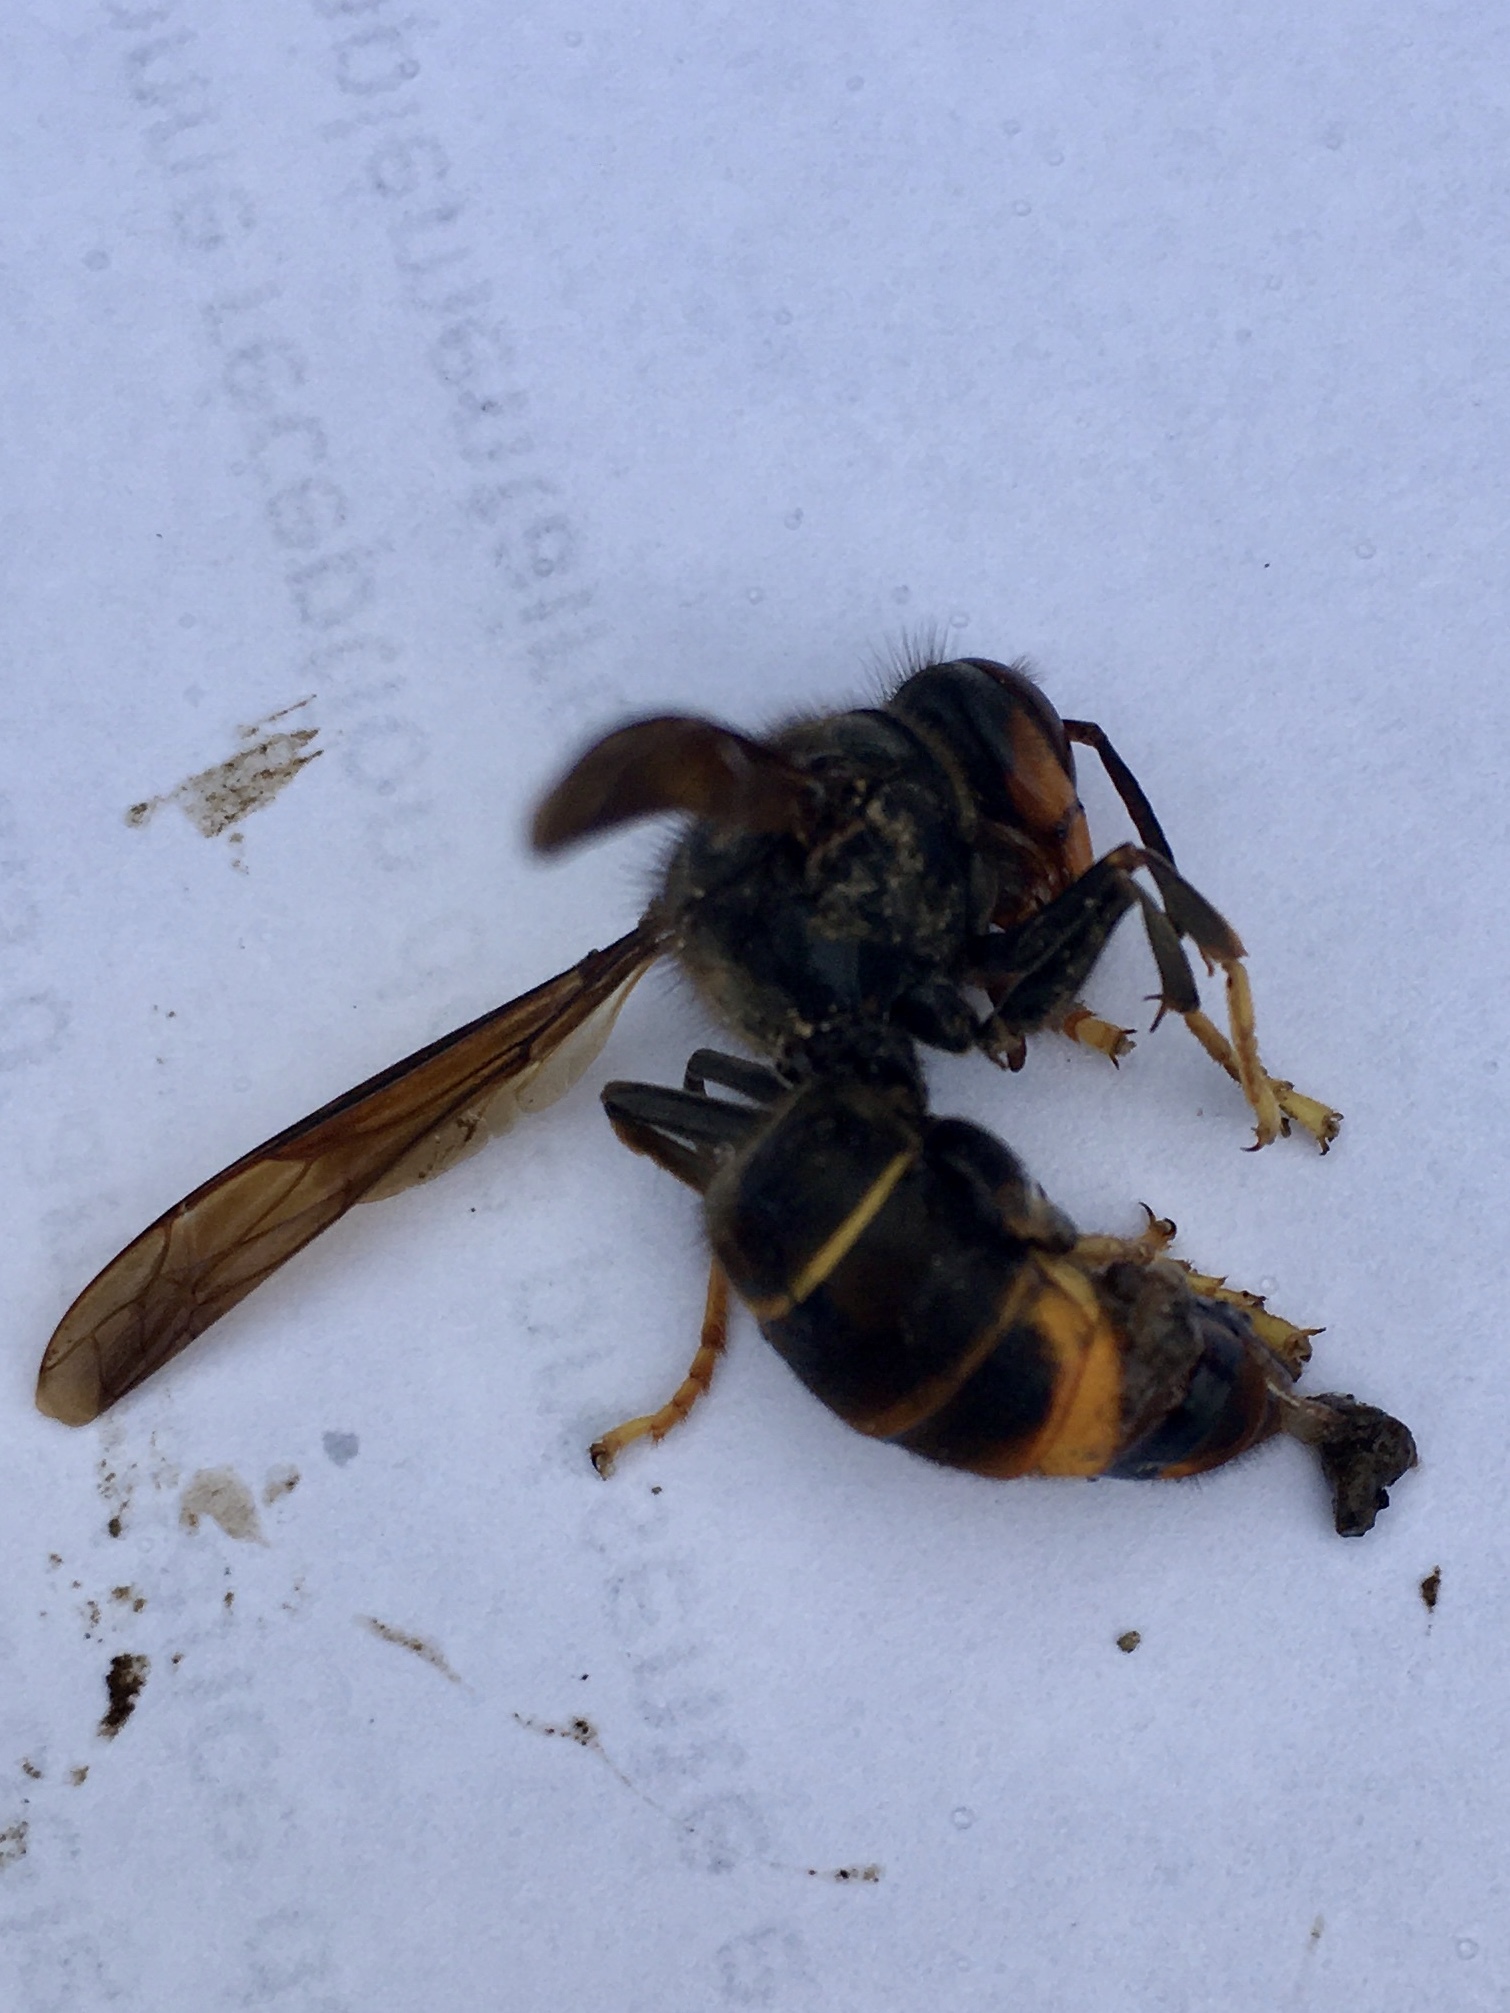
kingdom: Animalia
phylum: Arthropoda
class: Insecta
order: Hymenoptera
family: Vespidae
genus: Vespa
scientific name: Vespa velutina
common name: Asian hornet
